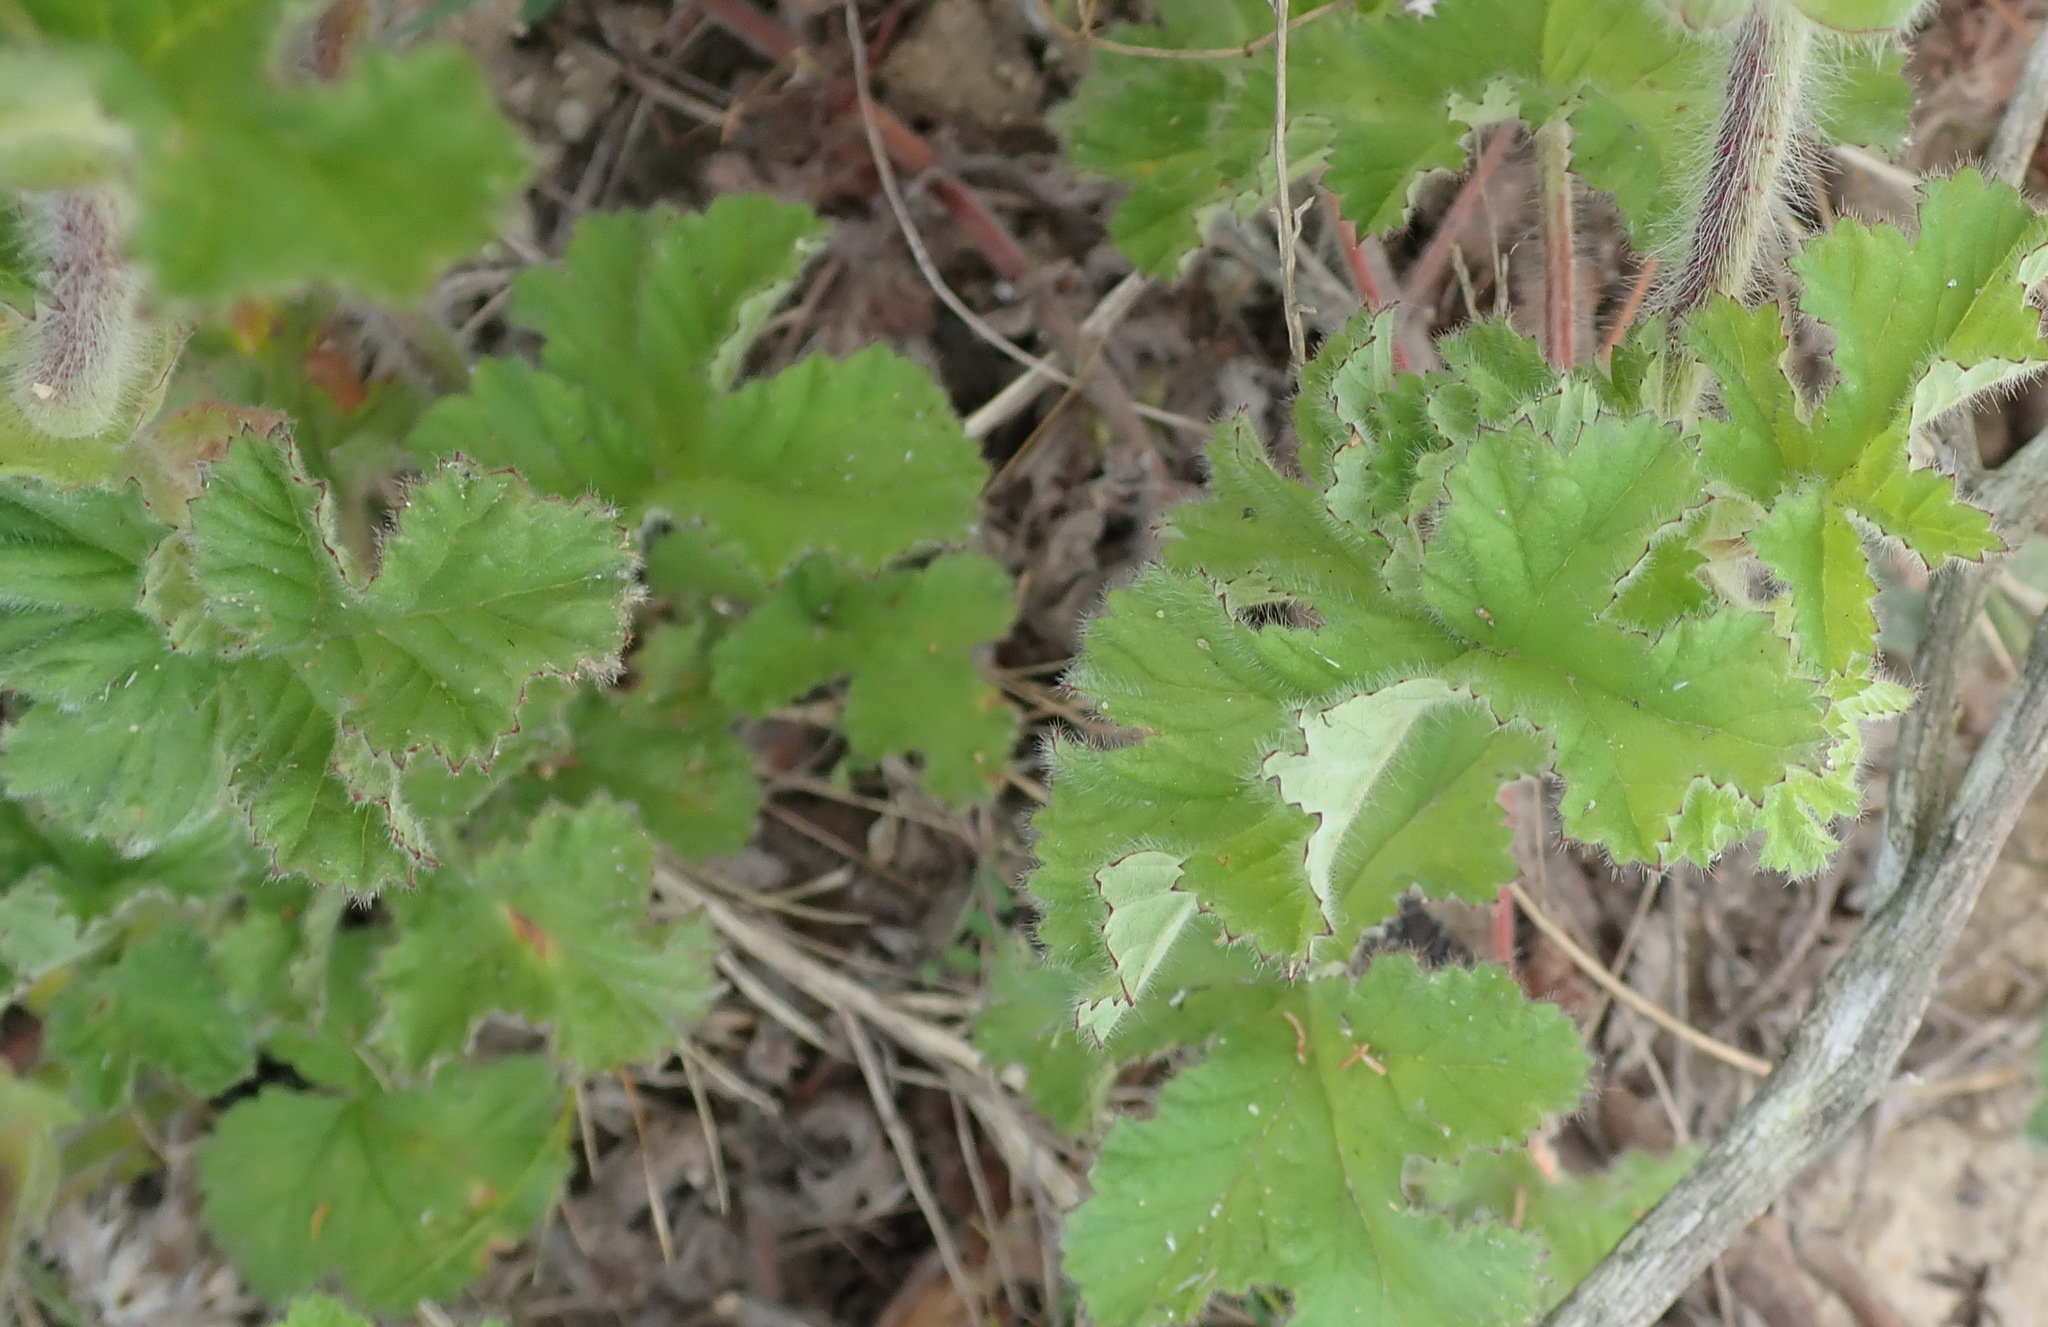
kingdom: Plantae
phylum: Tracheophyta
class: Magnoliopsida
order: Geraniales
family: Geraniaceae
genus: Pelargonium
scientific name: Pelargonium capitatum
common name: Rose scented geranium
